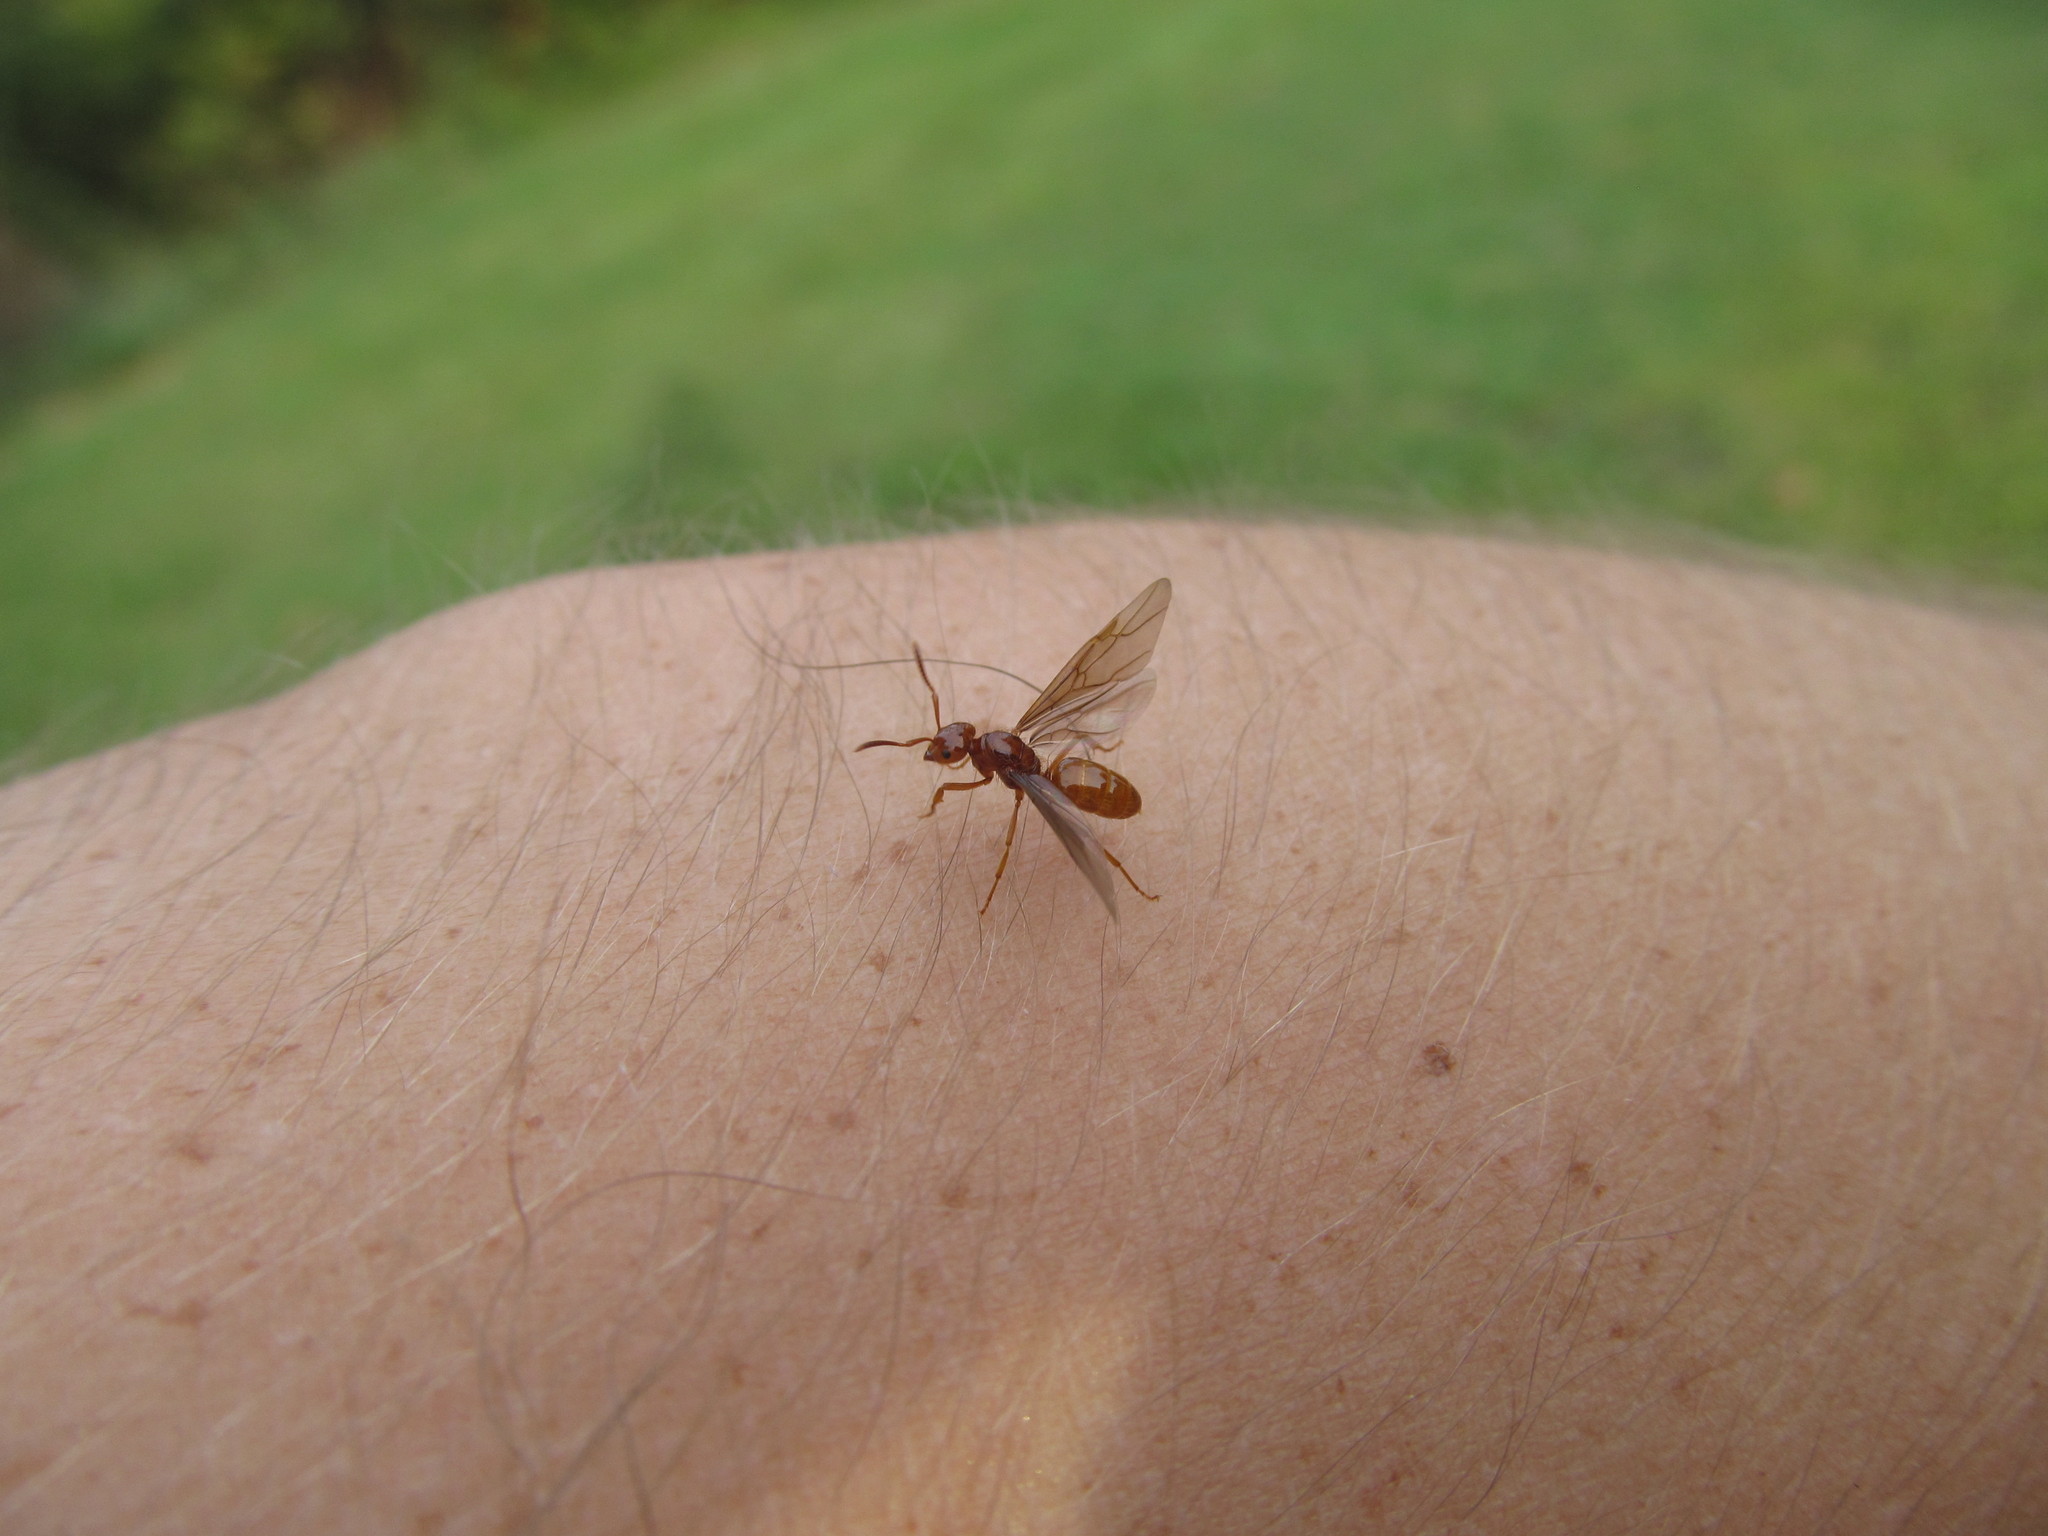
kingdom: Animalia
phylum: Arthropoda
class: Insecta
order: Hymenoptera
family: Formicidae
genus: Acanthomyops
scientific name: Acanthomyops interjectus
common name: Larger yellow ant
